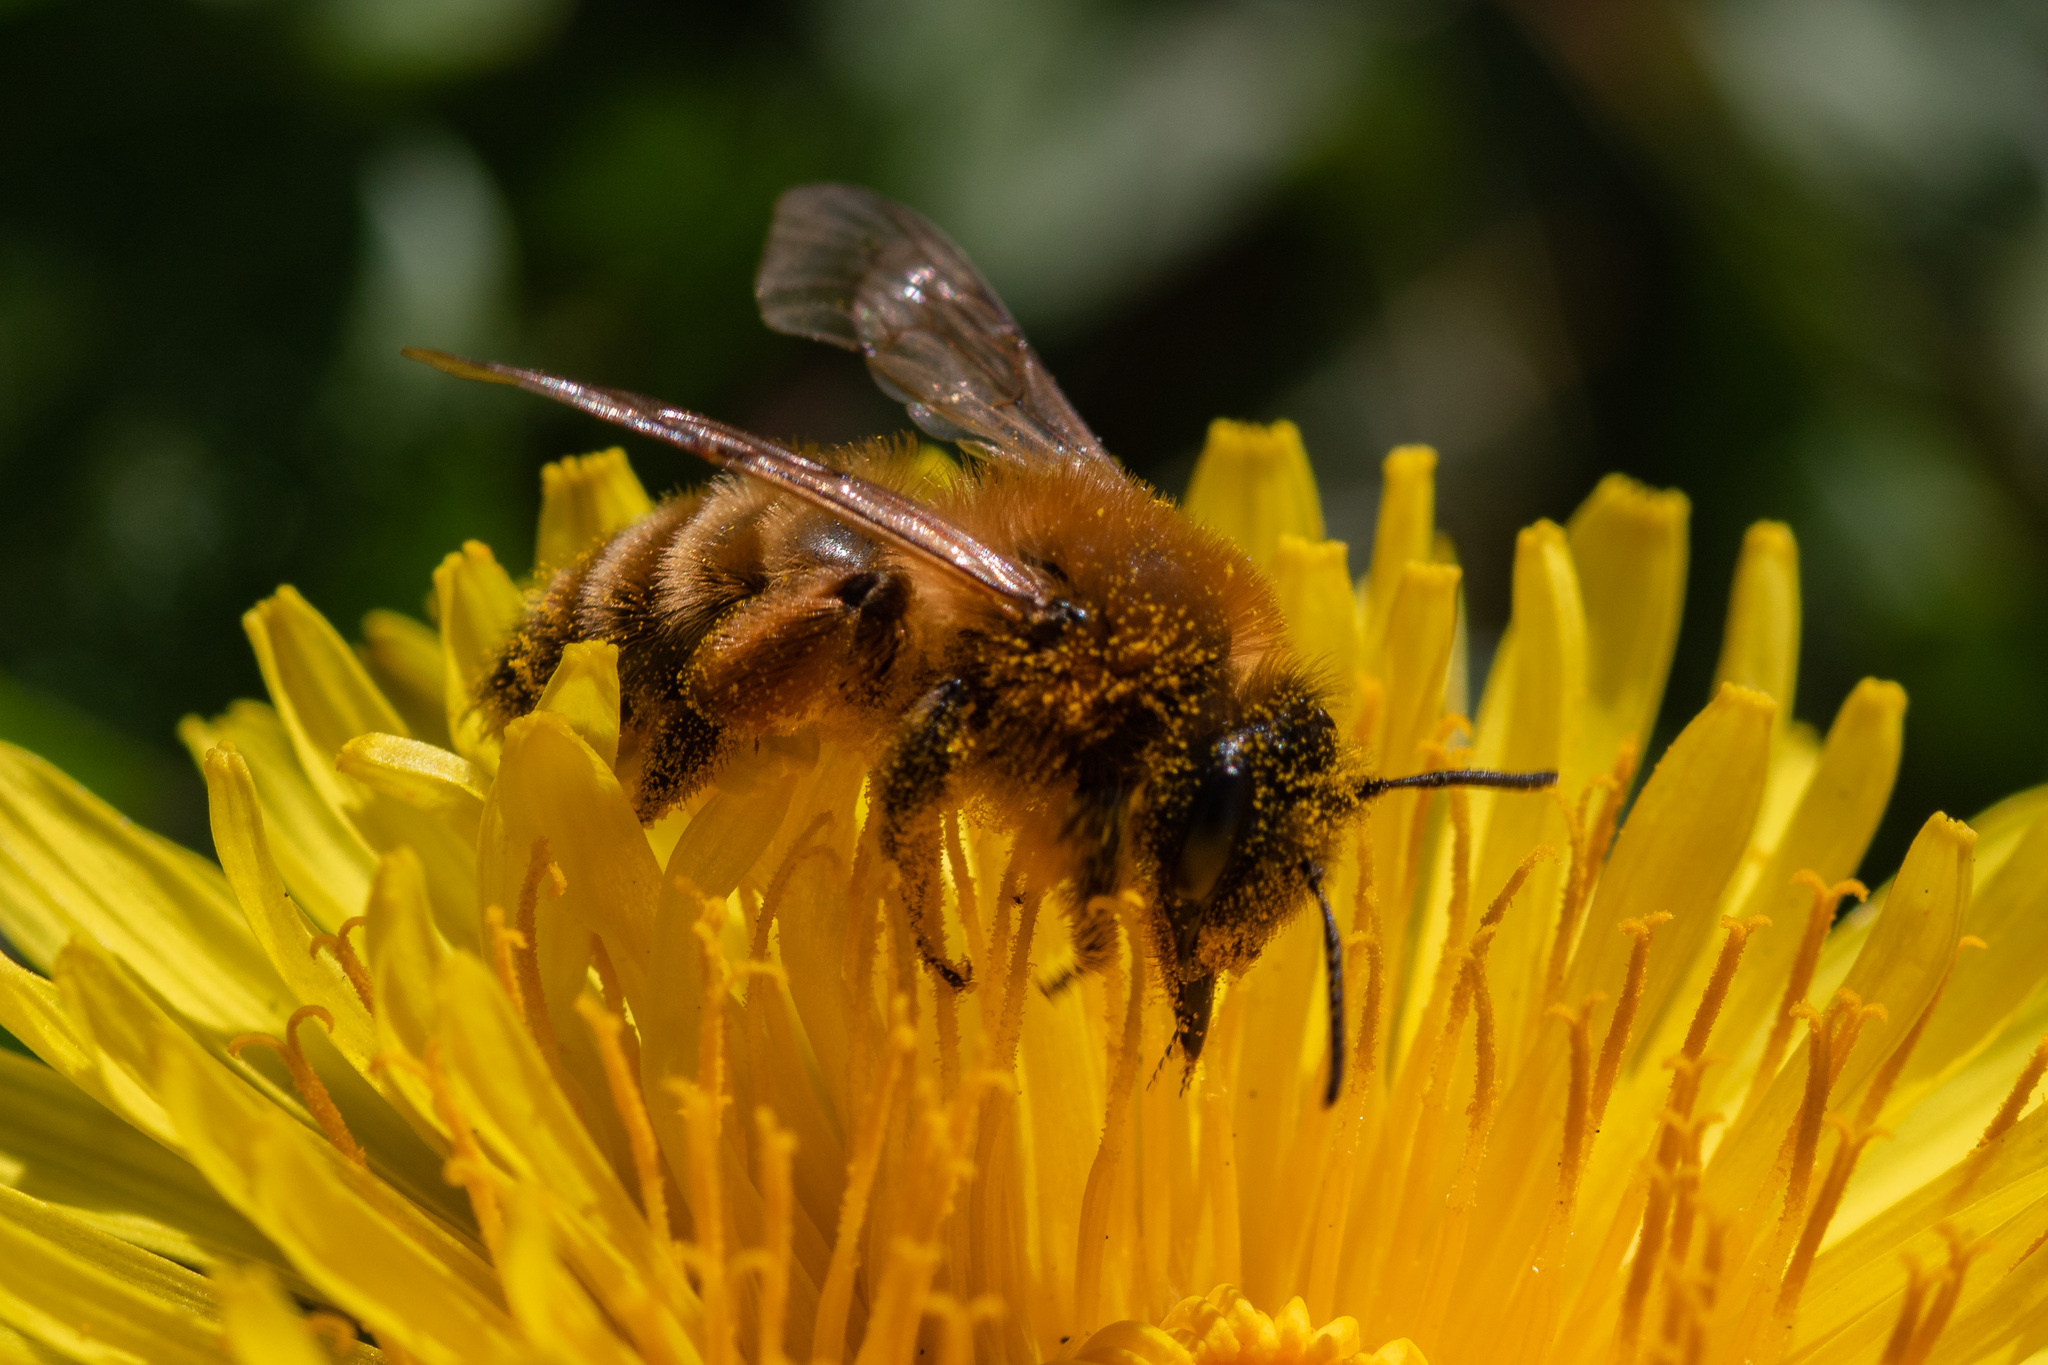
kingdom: Animalia
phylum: Arthropoda
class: Insecta
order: Hymenoptera
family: Andrenidae
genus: Andrena
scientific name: Andrena nigroaenea
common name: Buffish mining bee
